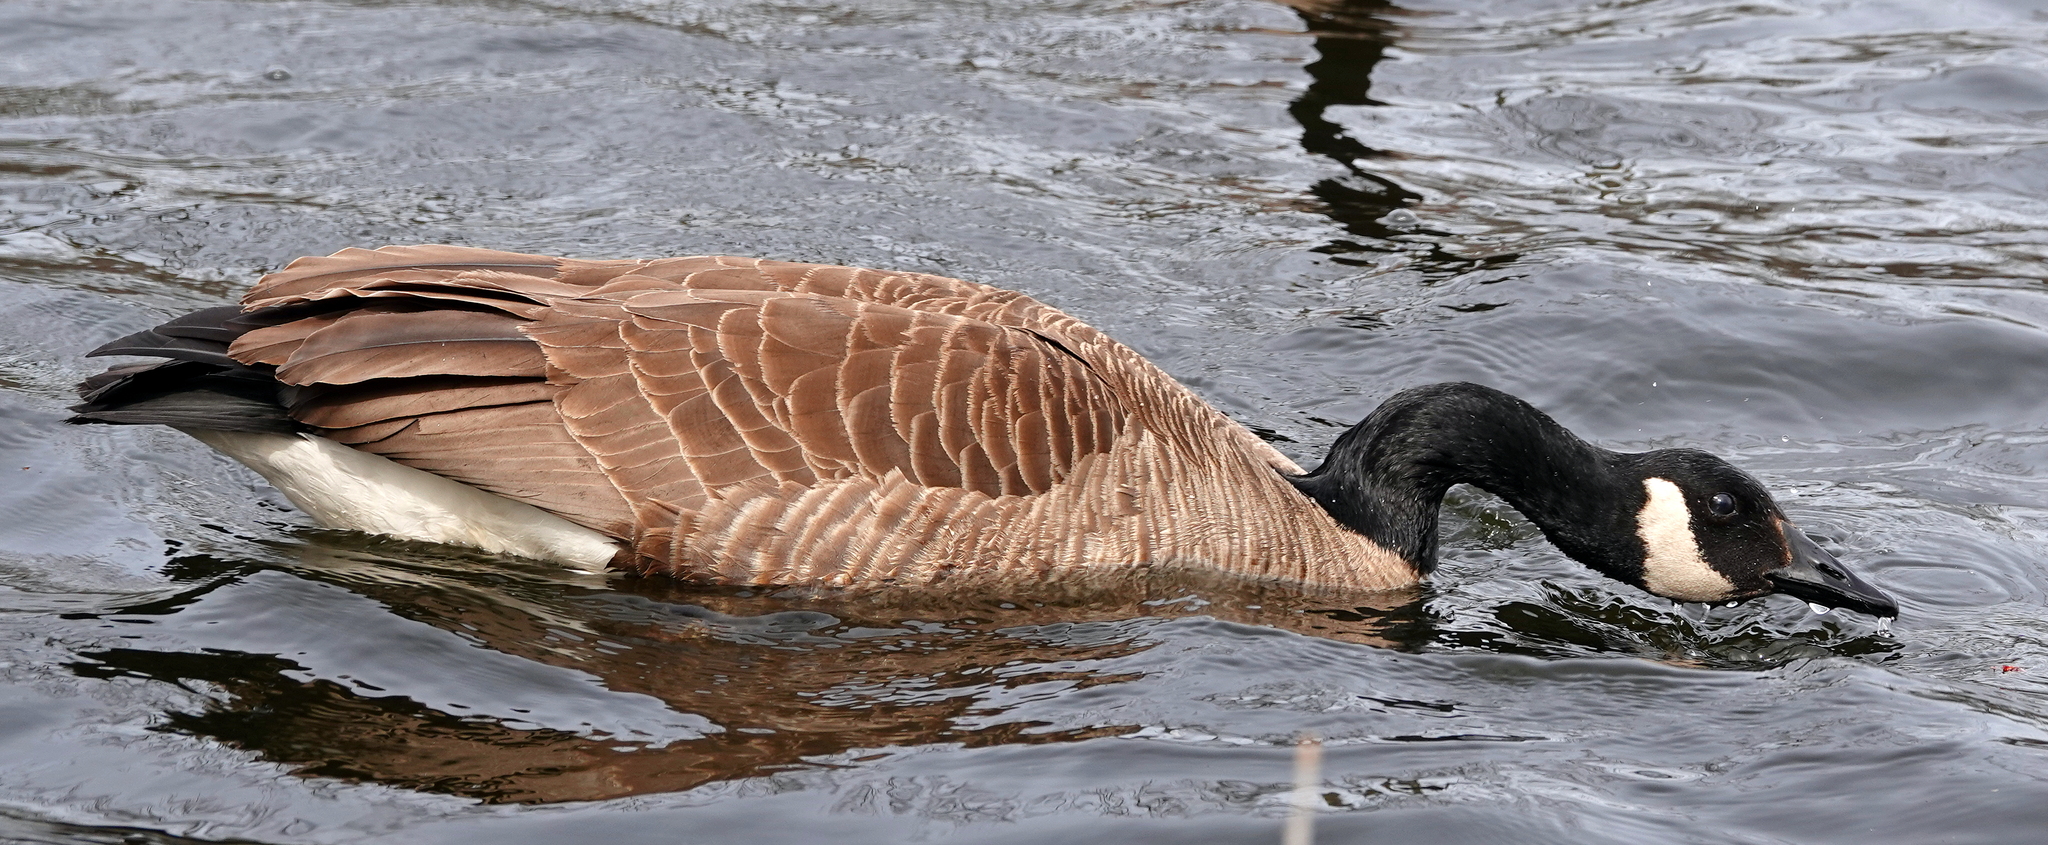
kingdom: Animalia
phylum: Chordata
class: Aves
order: Anseriformes
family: Anatidae
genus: Branta
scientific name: Branta canadensis
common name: Canada goose
